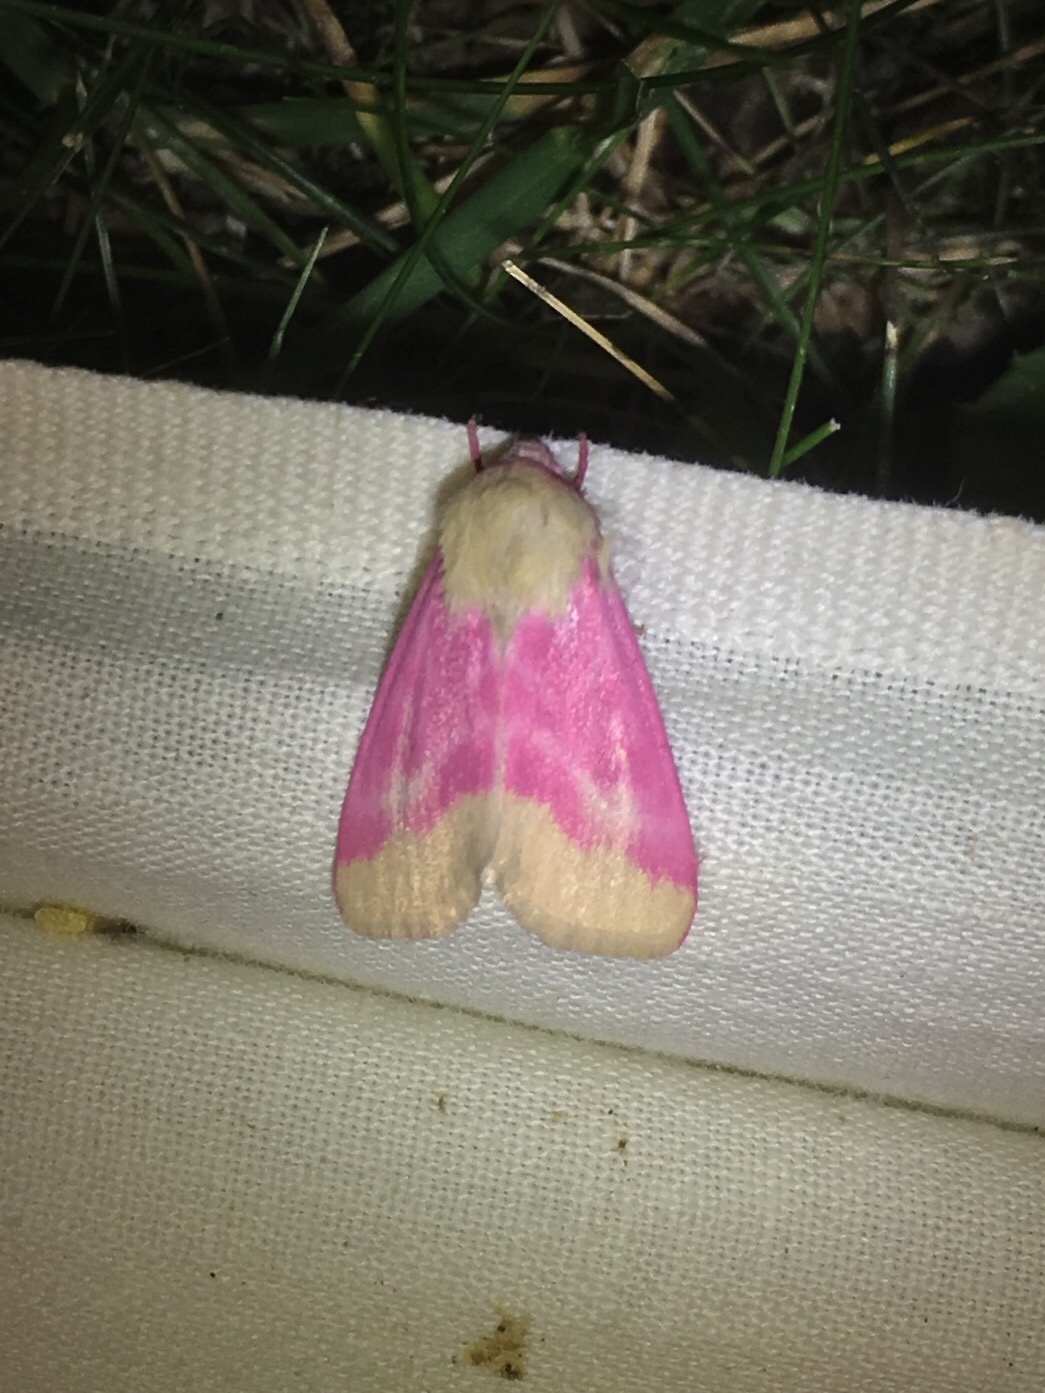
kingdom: Animalia
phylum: Arthropoda
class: Insecta
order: Lepidoptera
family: Noctuidae
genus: Schinia
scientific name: Schinia florida
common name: Primrose moth
